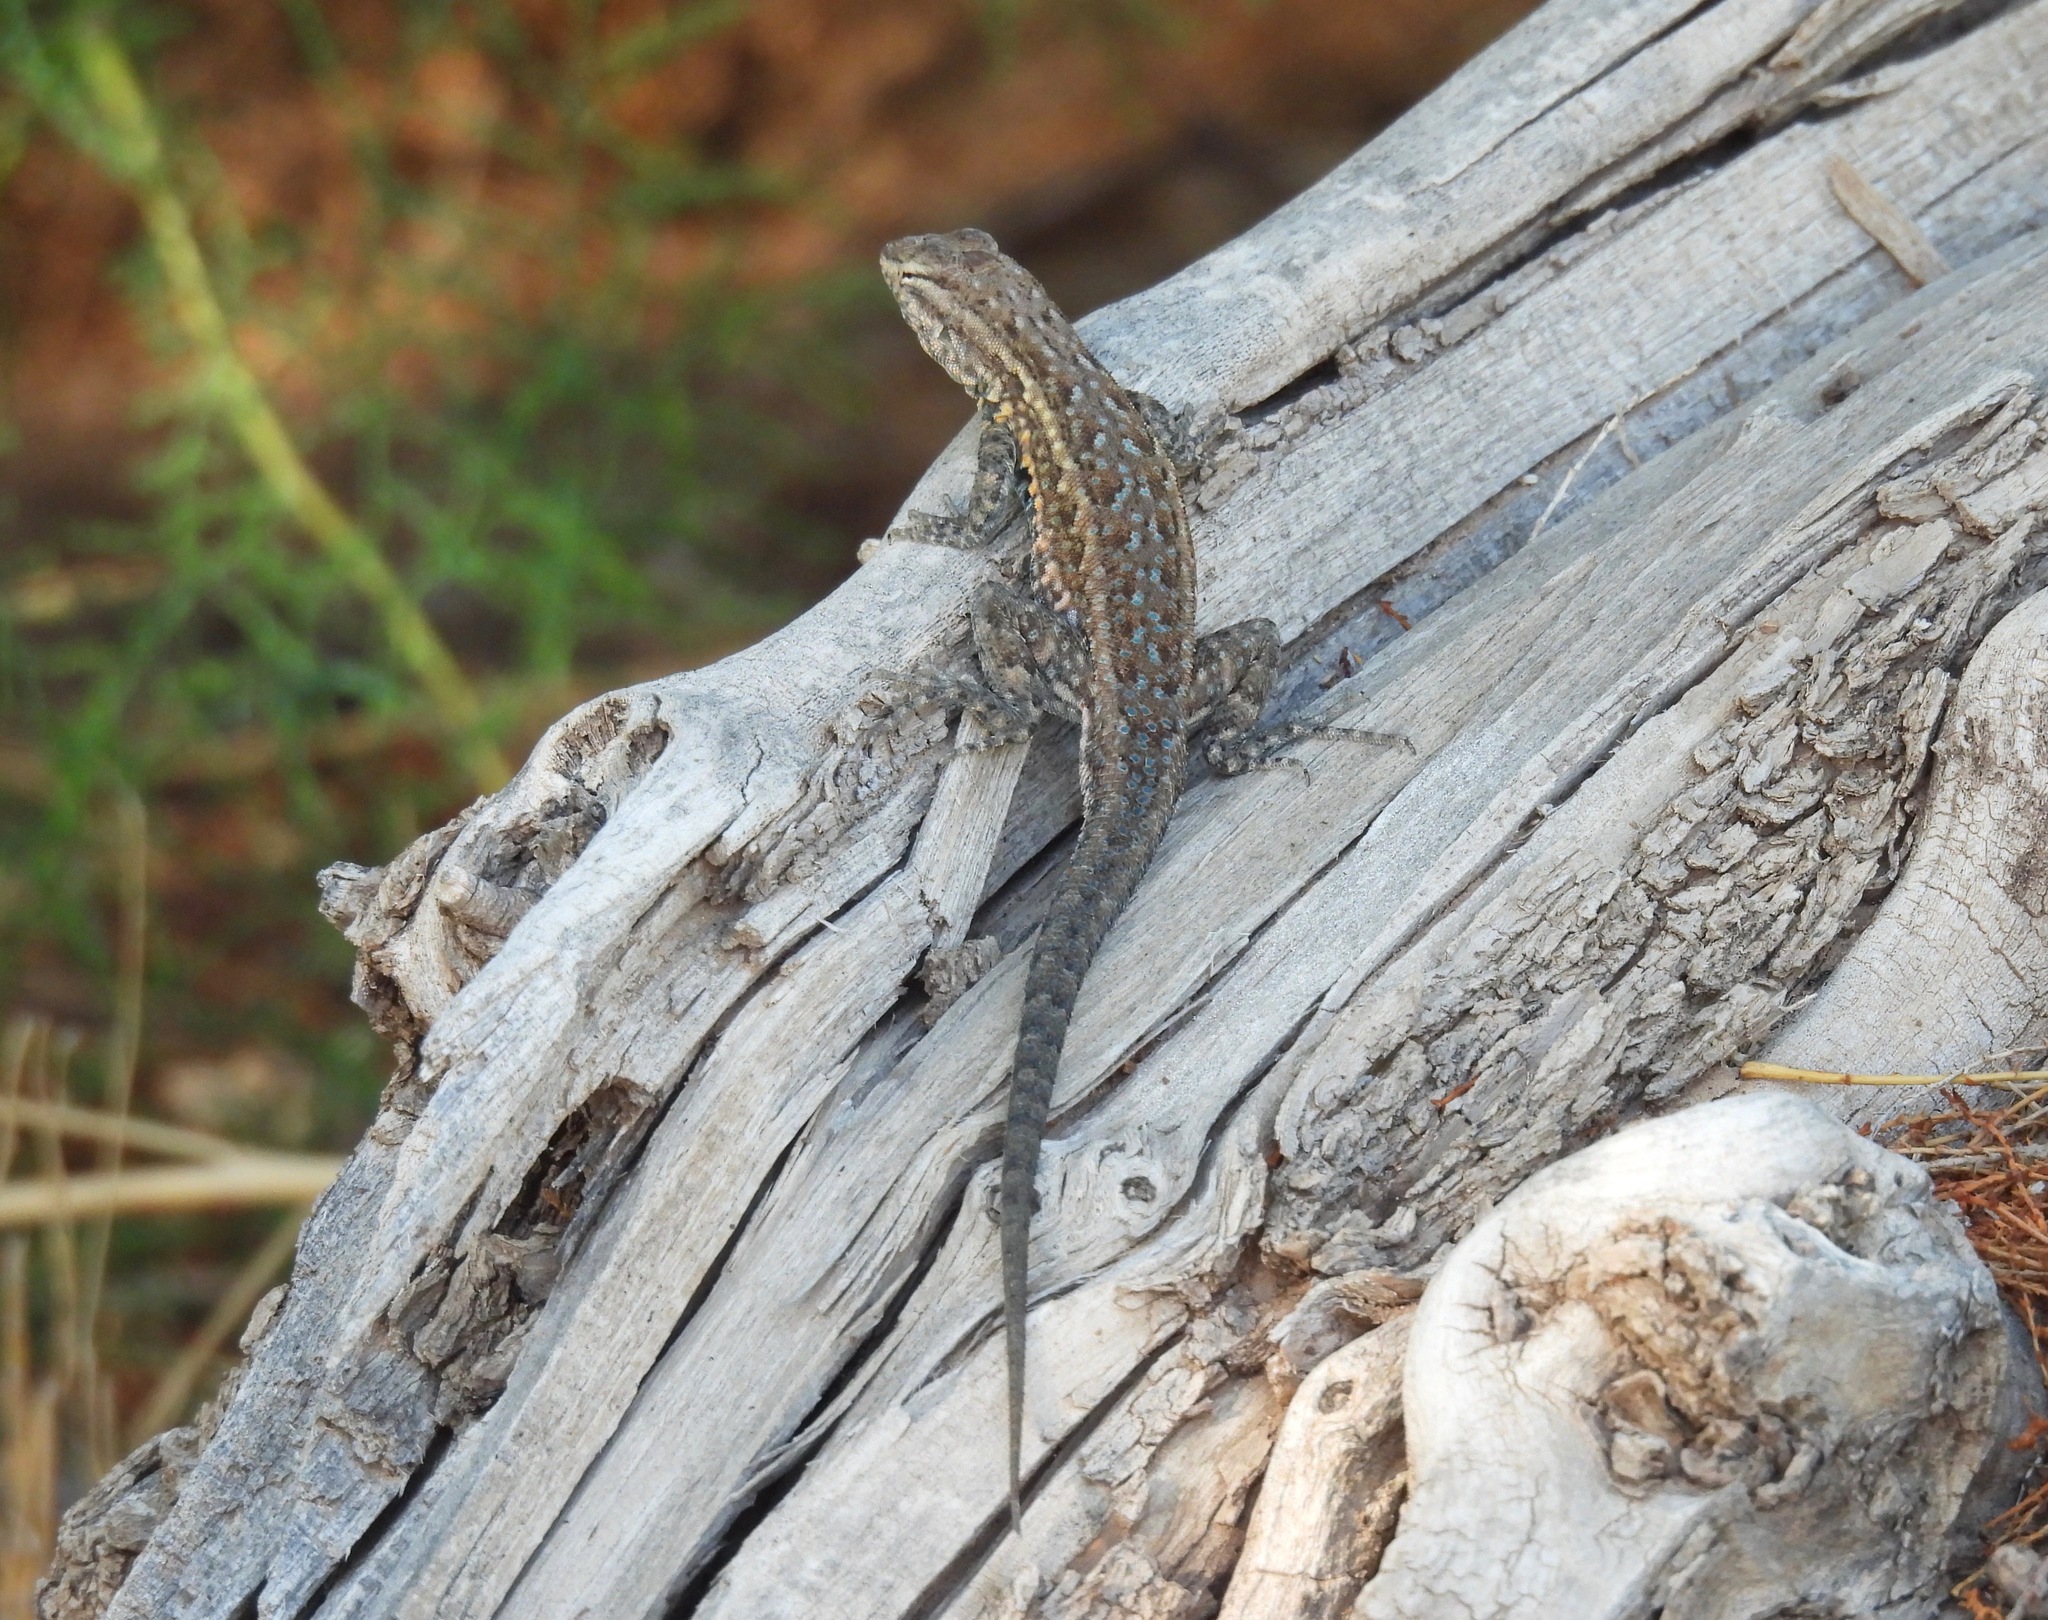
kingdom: Animalia
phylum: Chordata
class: Squamata
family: Phrynosomatidae
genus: Uta
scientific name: Uta stansburiana
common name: Side-blotched lizard
